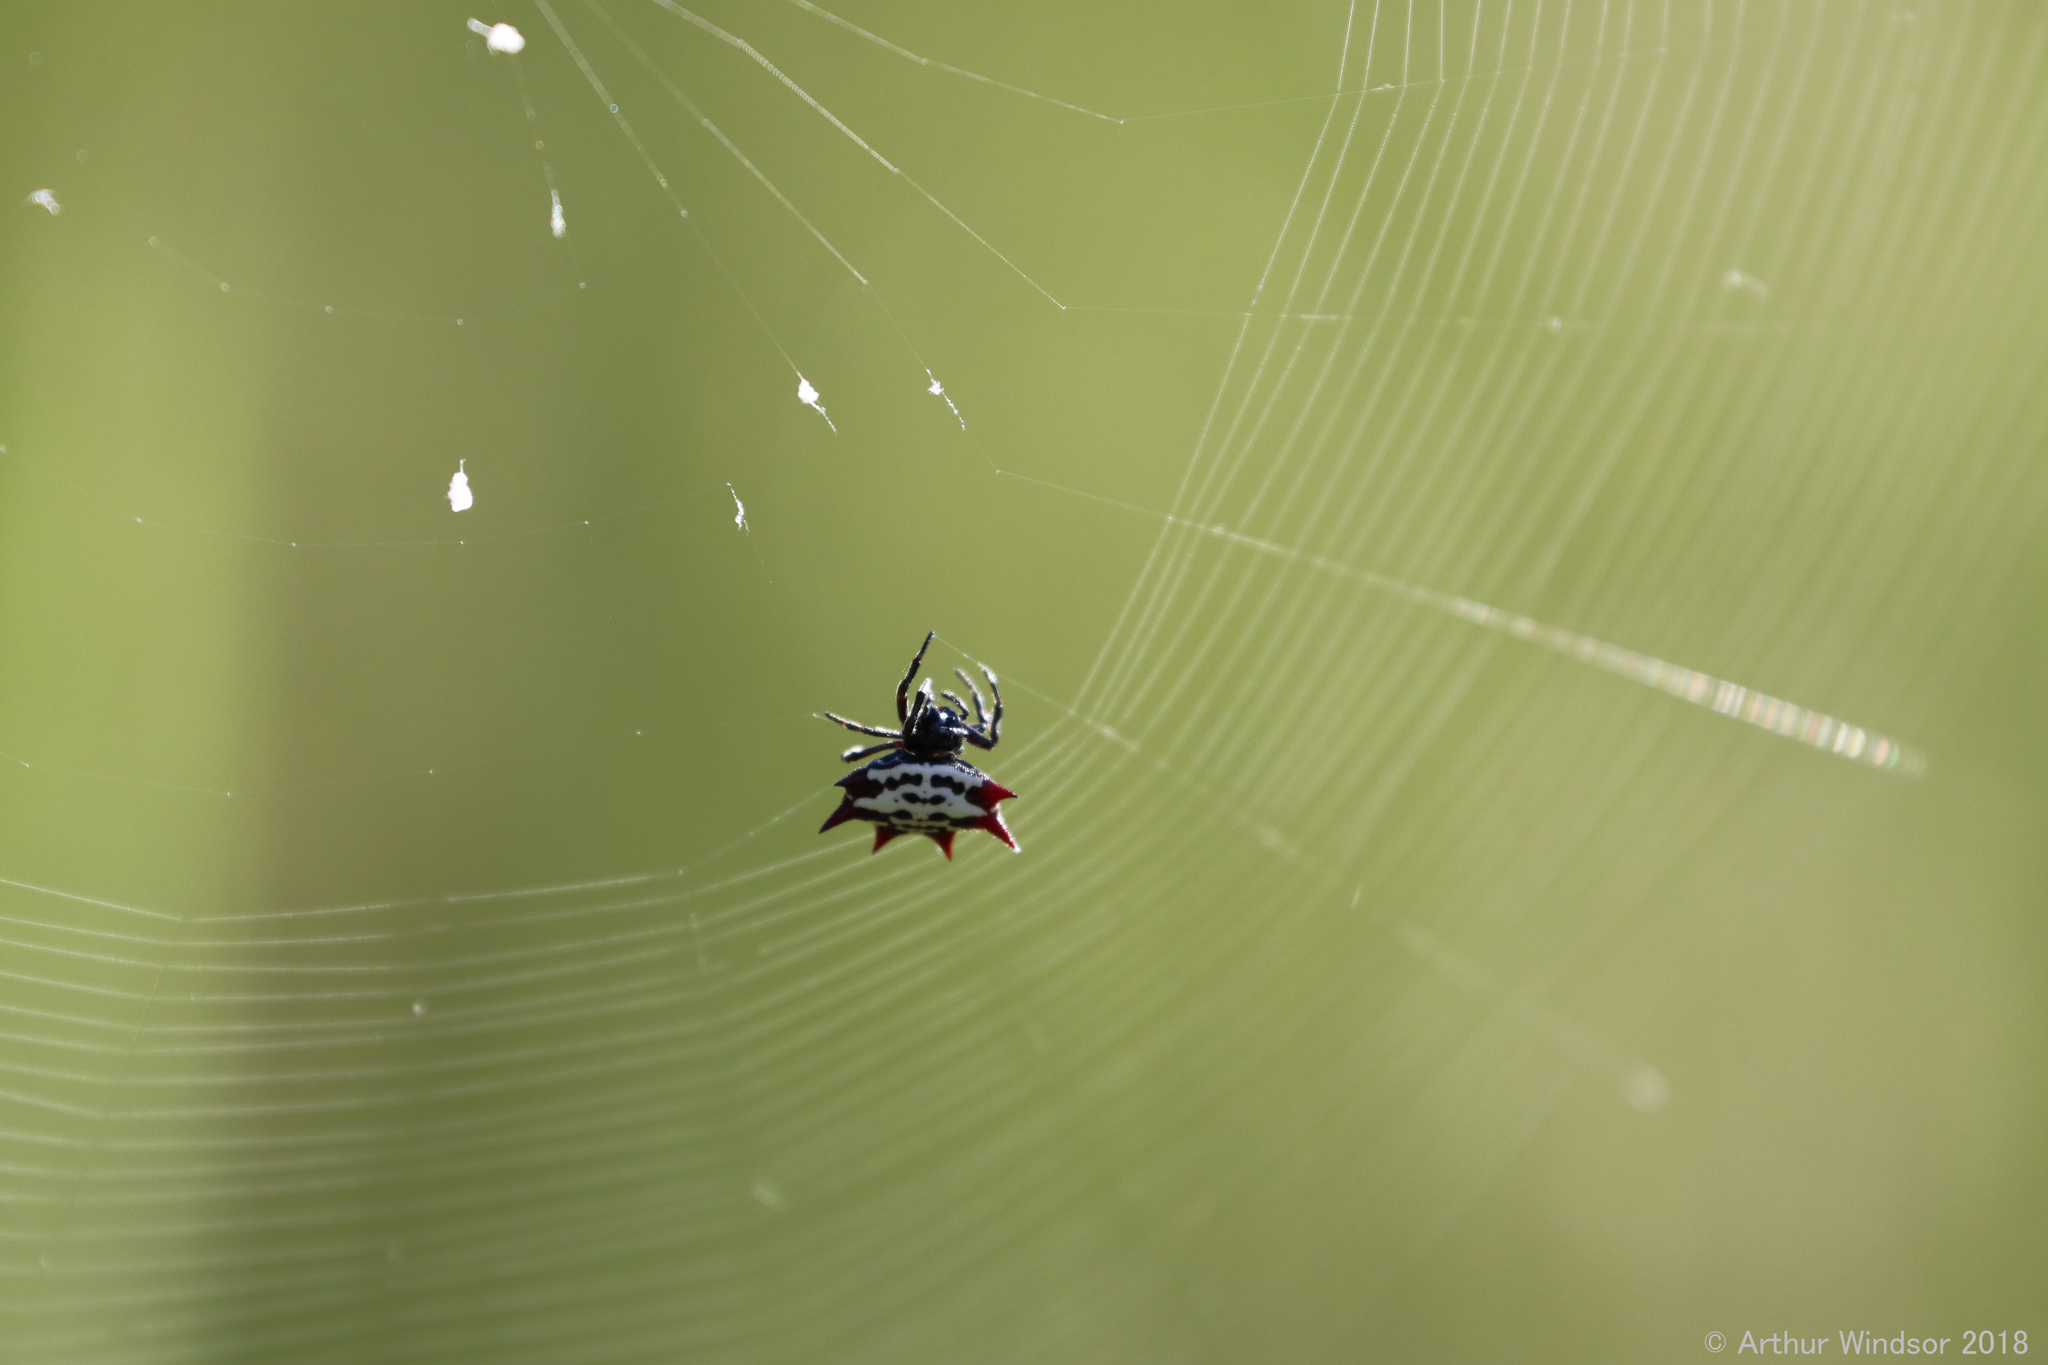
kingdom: Animalia
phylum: Arthropoda
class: Arachnida
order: Araneae
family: Araneidae
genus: Gasteracantha
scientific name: Gasteracantha cancriformis
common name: Orb weavers
